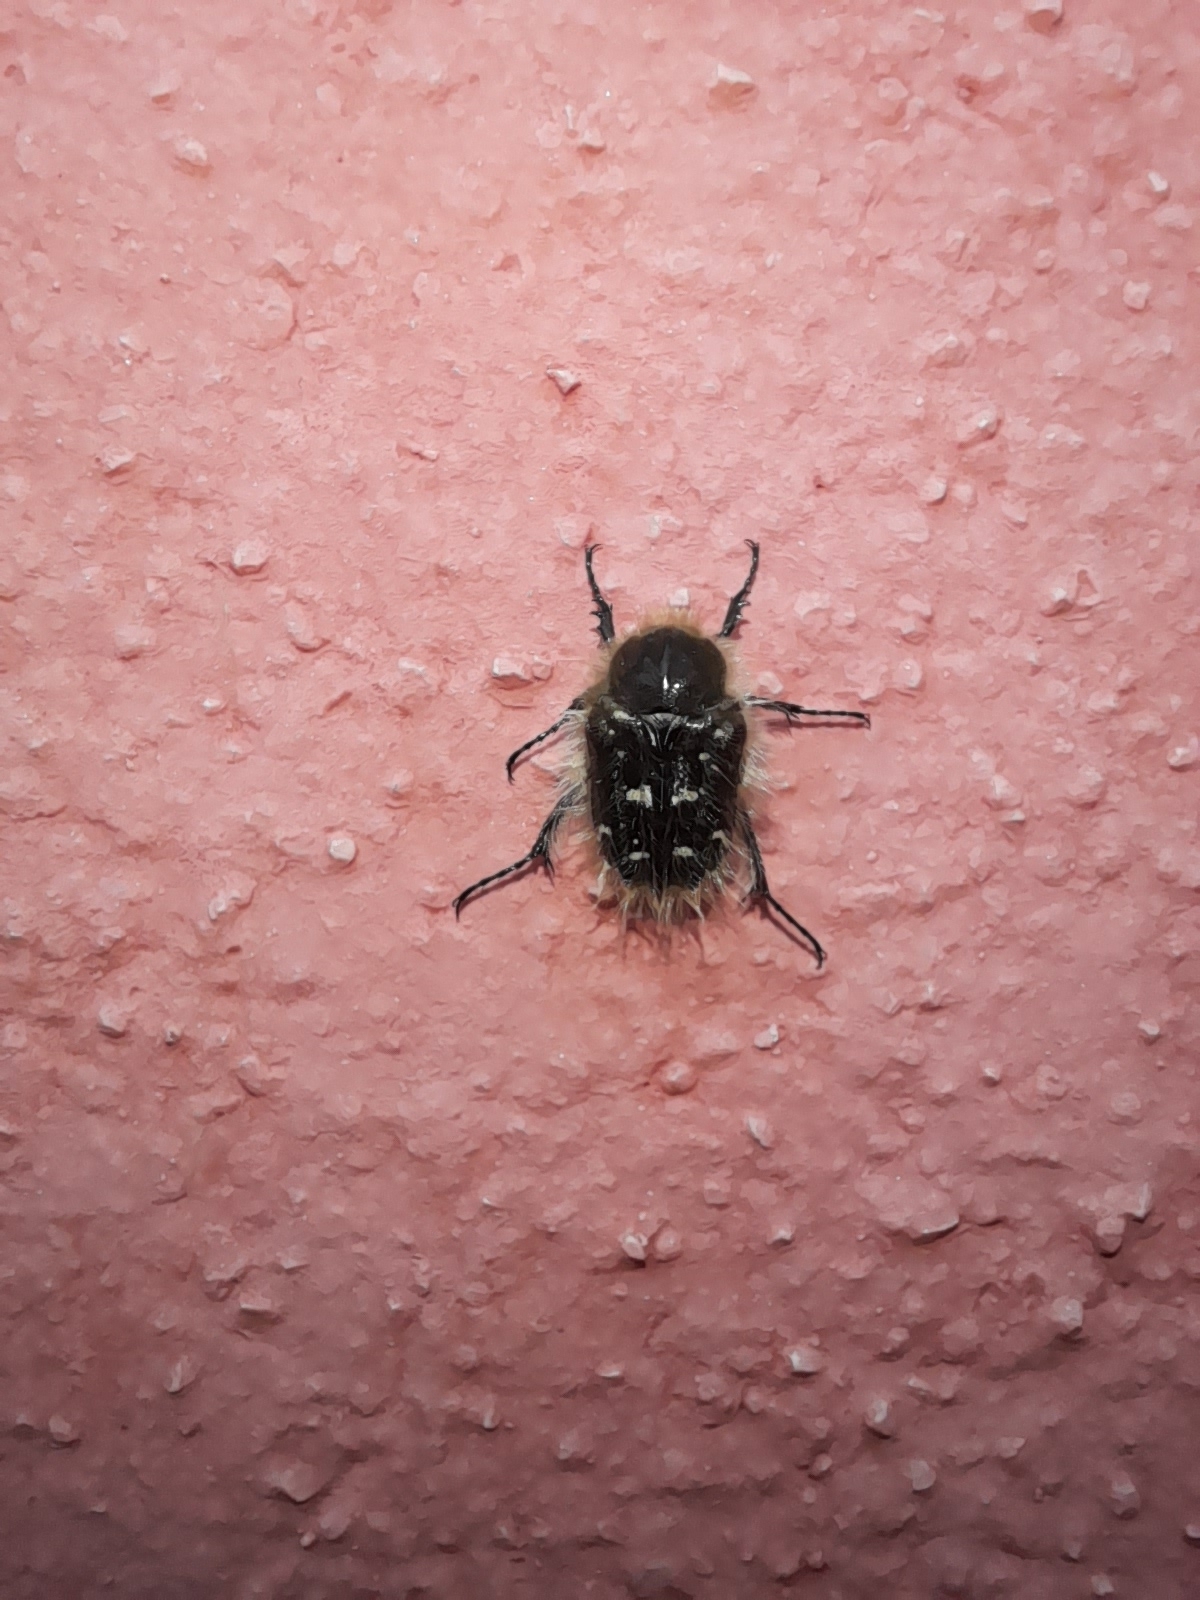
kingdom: Animalia
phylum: Arthropoda
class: Insecta
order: Coleoptera
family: Scarabaeidae
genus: Tropinota
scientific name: Tropinota squalida
